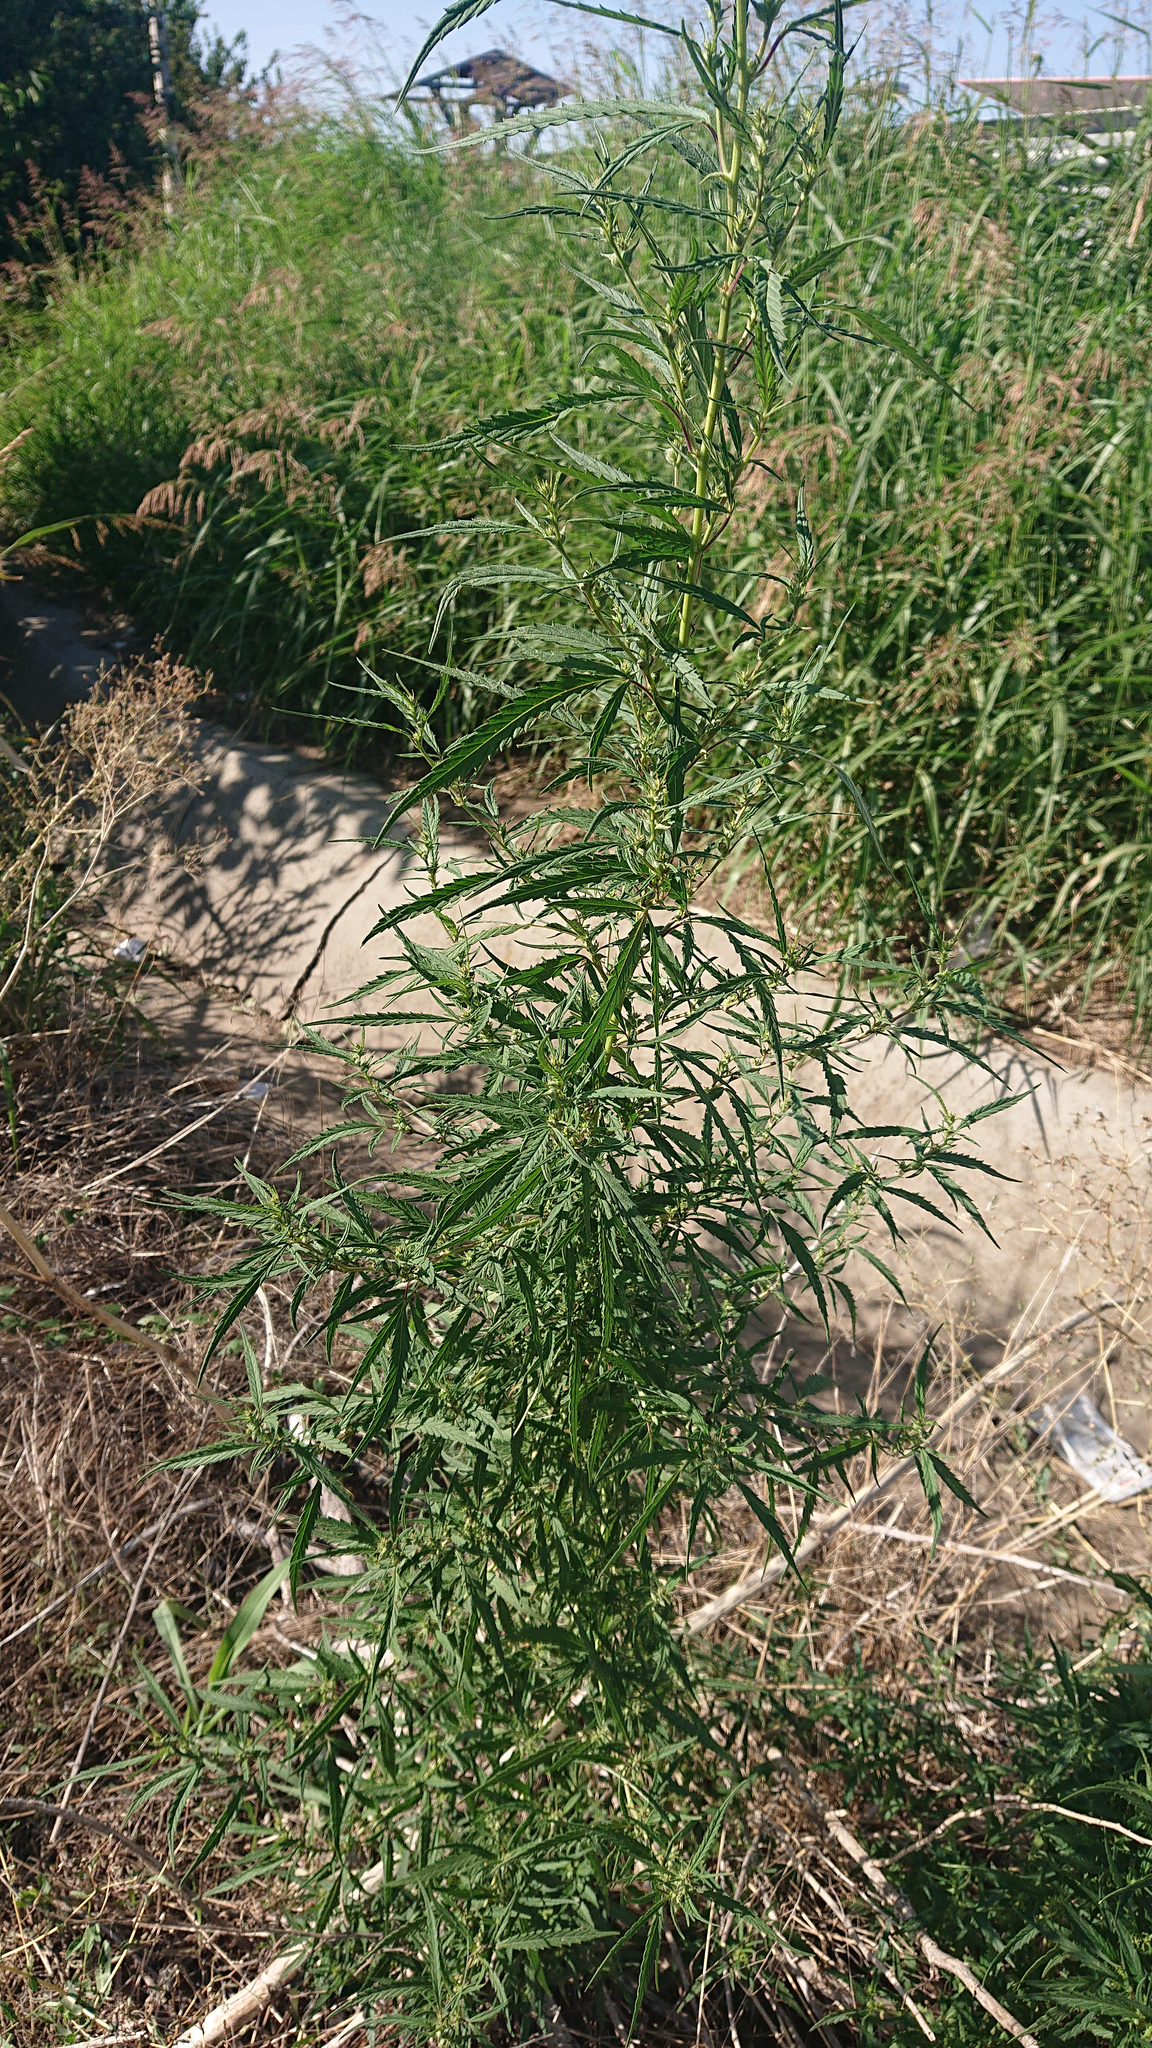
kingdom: Plantae
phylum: Tracheophyta
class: Magnoliopsida
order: Rosales
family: Cannabaceae
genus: Cannabis
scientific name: Cannabis sativa
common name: Hemp
